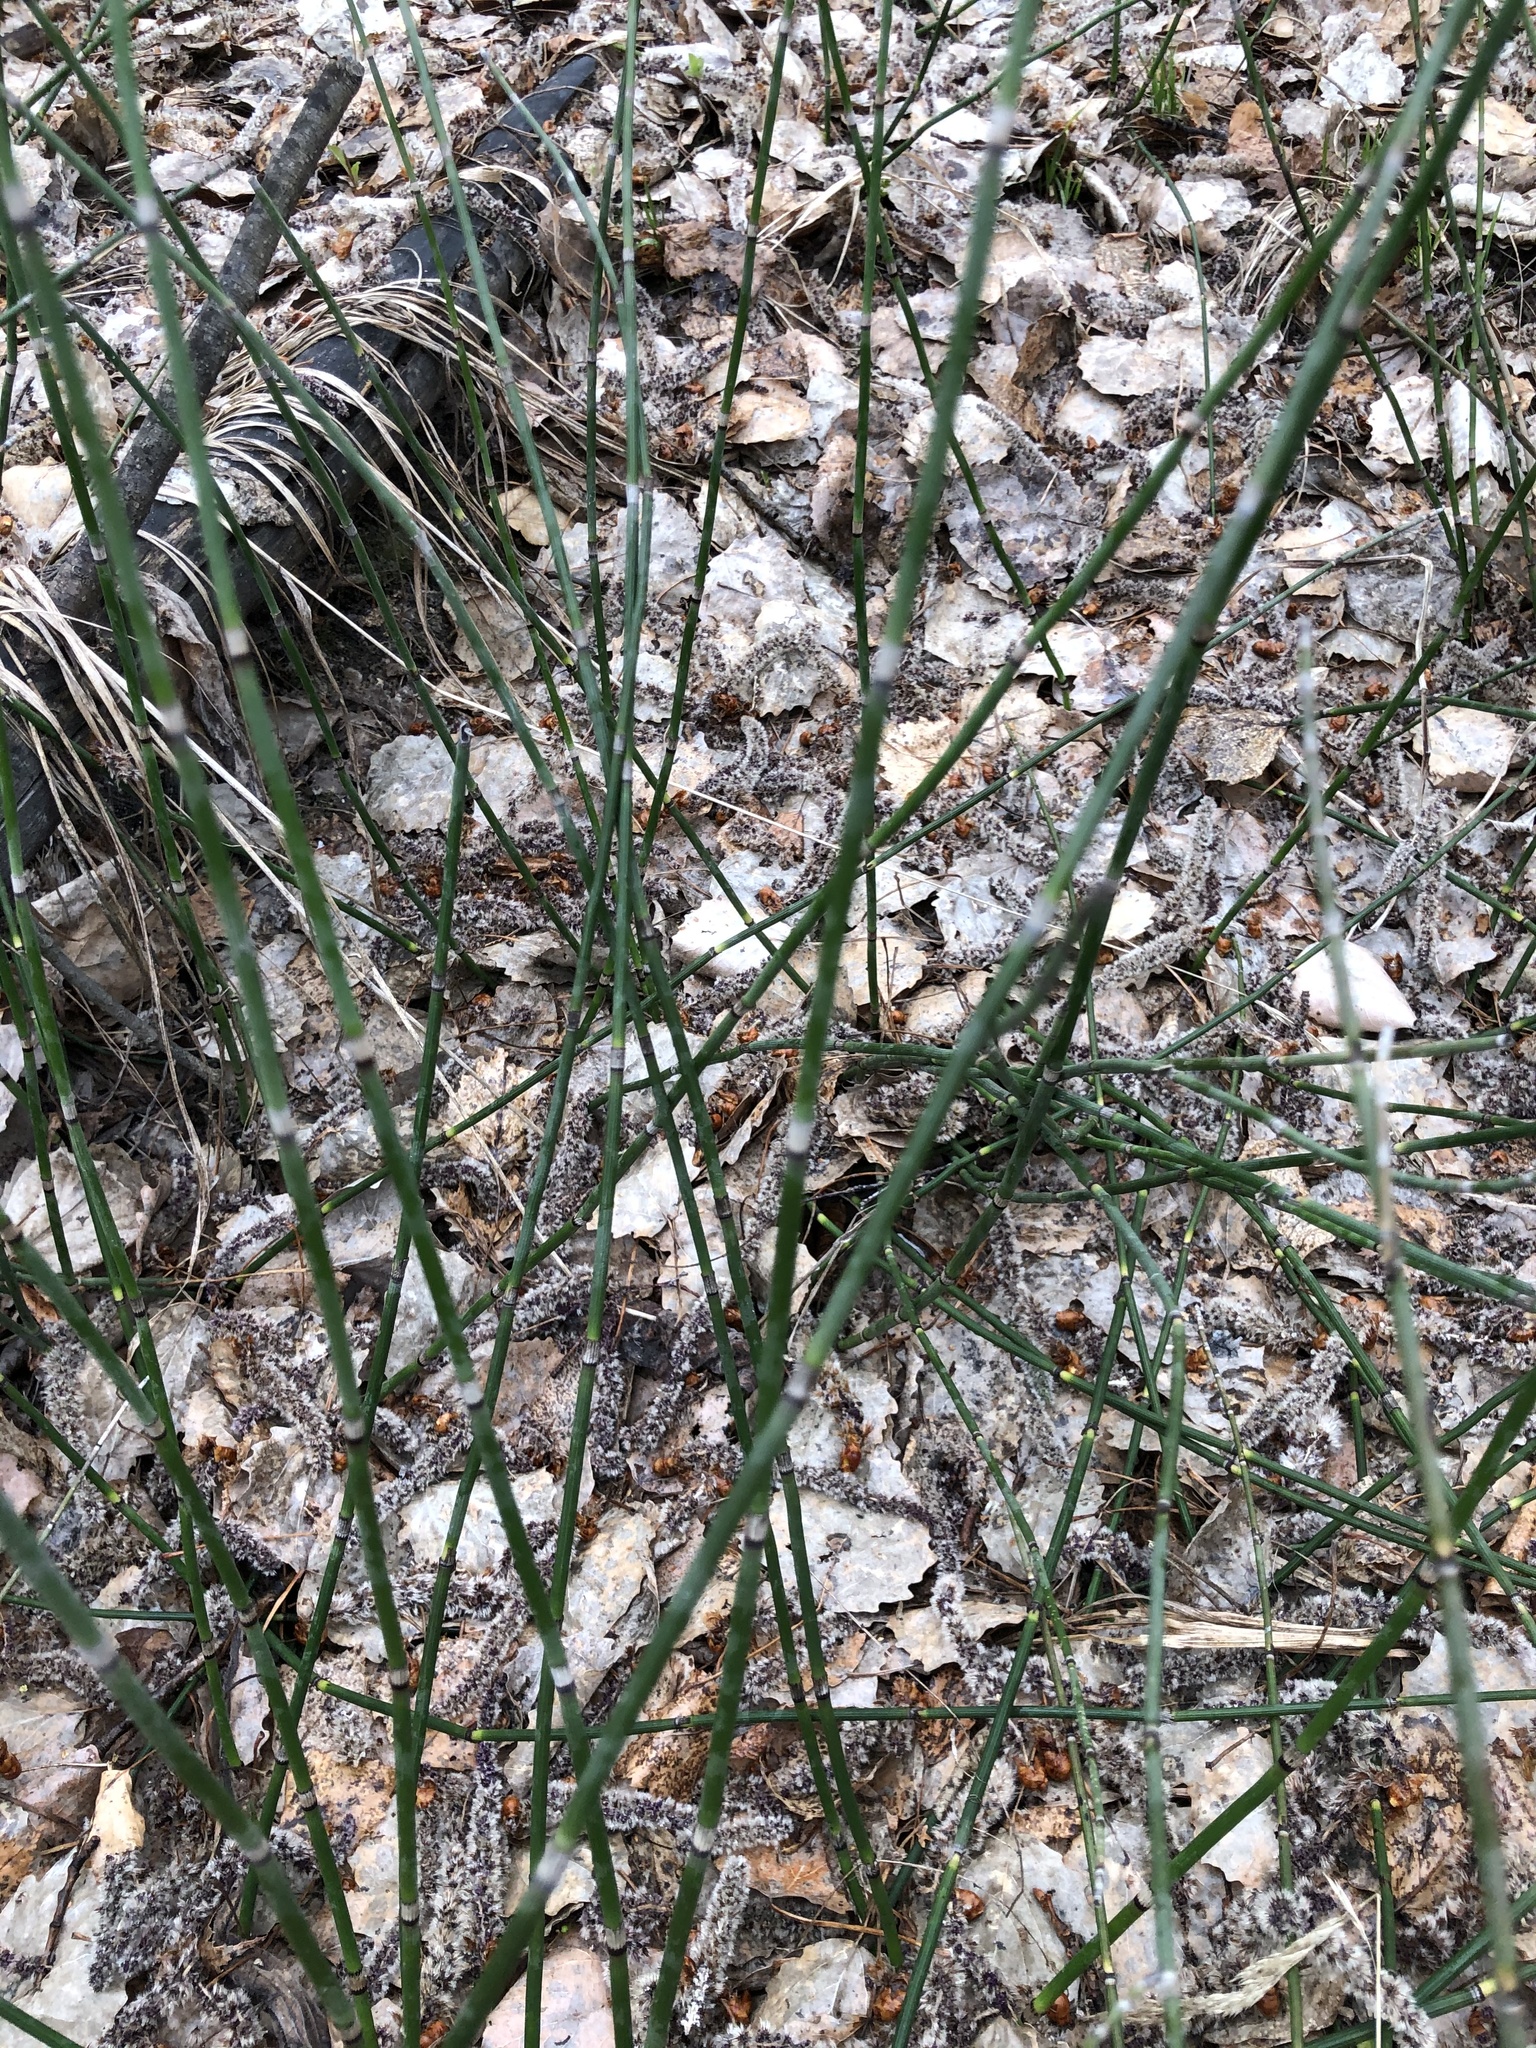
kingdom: Plantae
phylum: Tracheophyta
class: Polypodiopsida
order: Equisetales
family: Equisetaceae
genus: Equisetum
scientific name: Equisetum hyemale
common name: Rough horsetail
